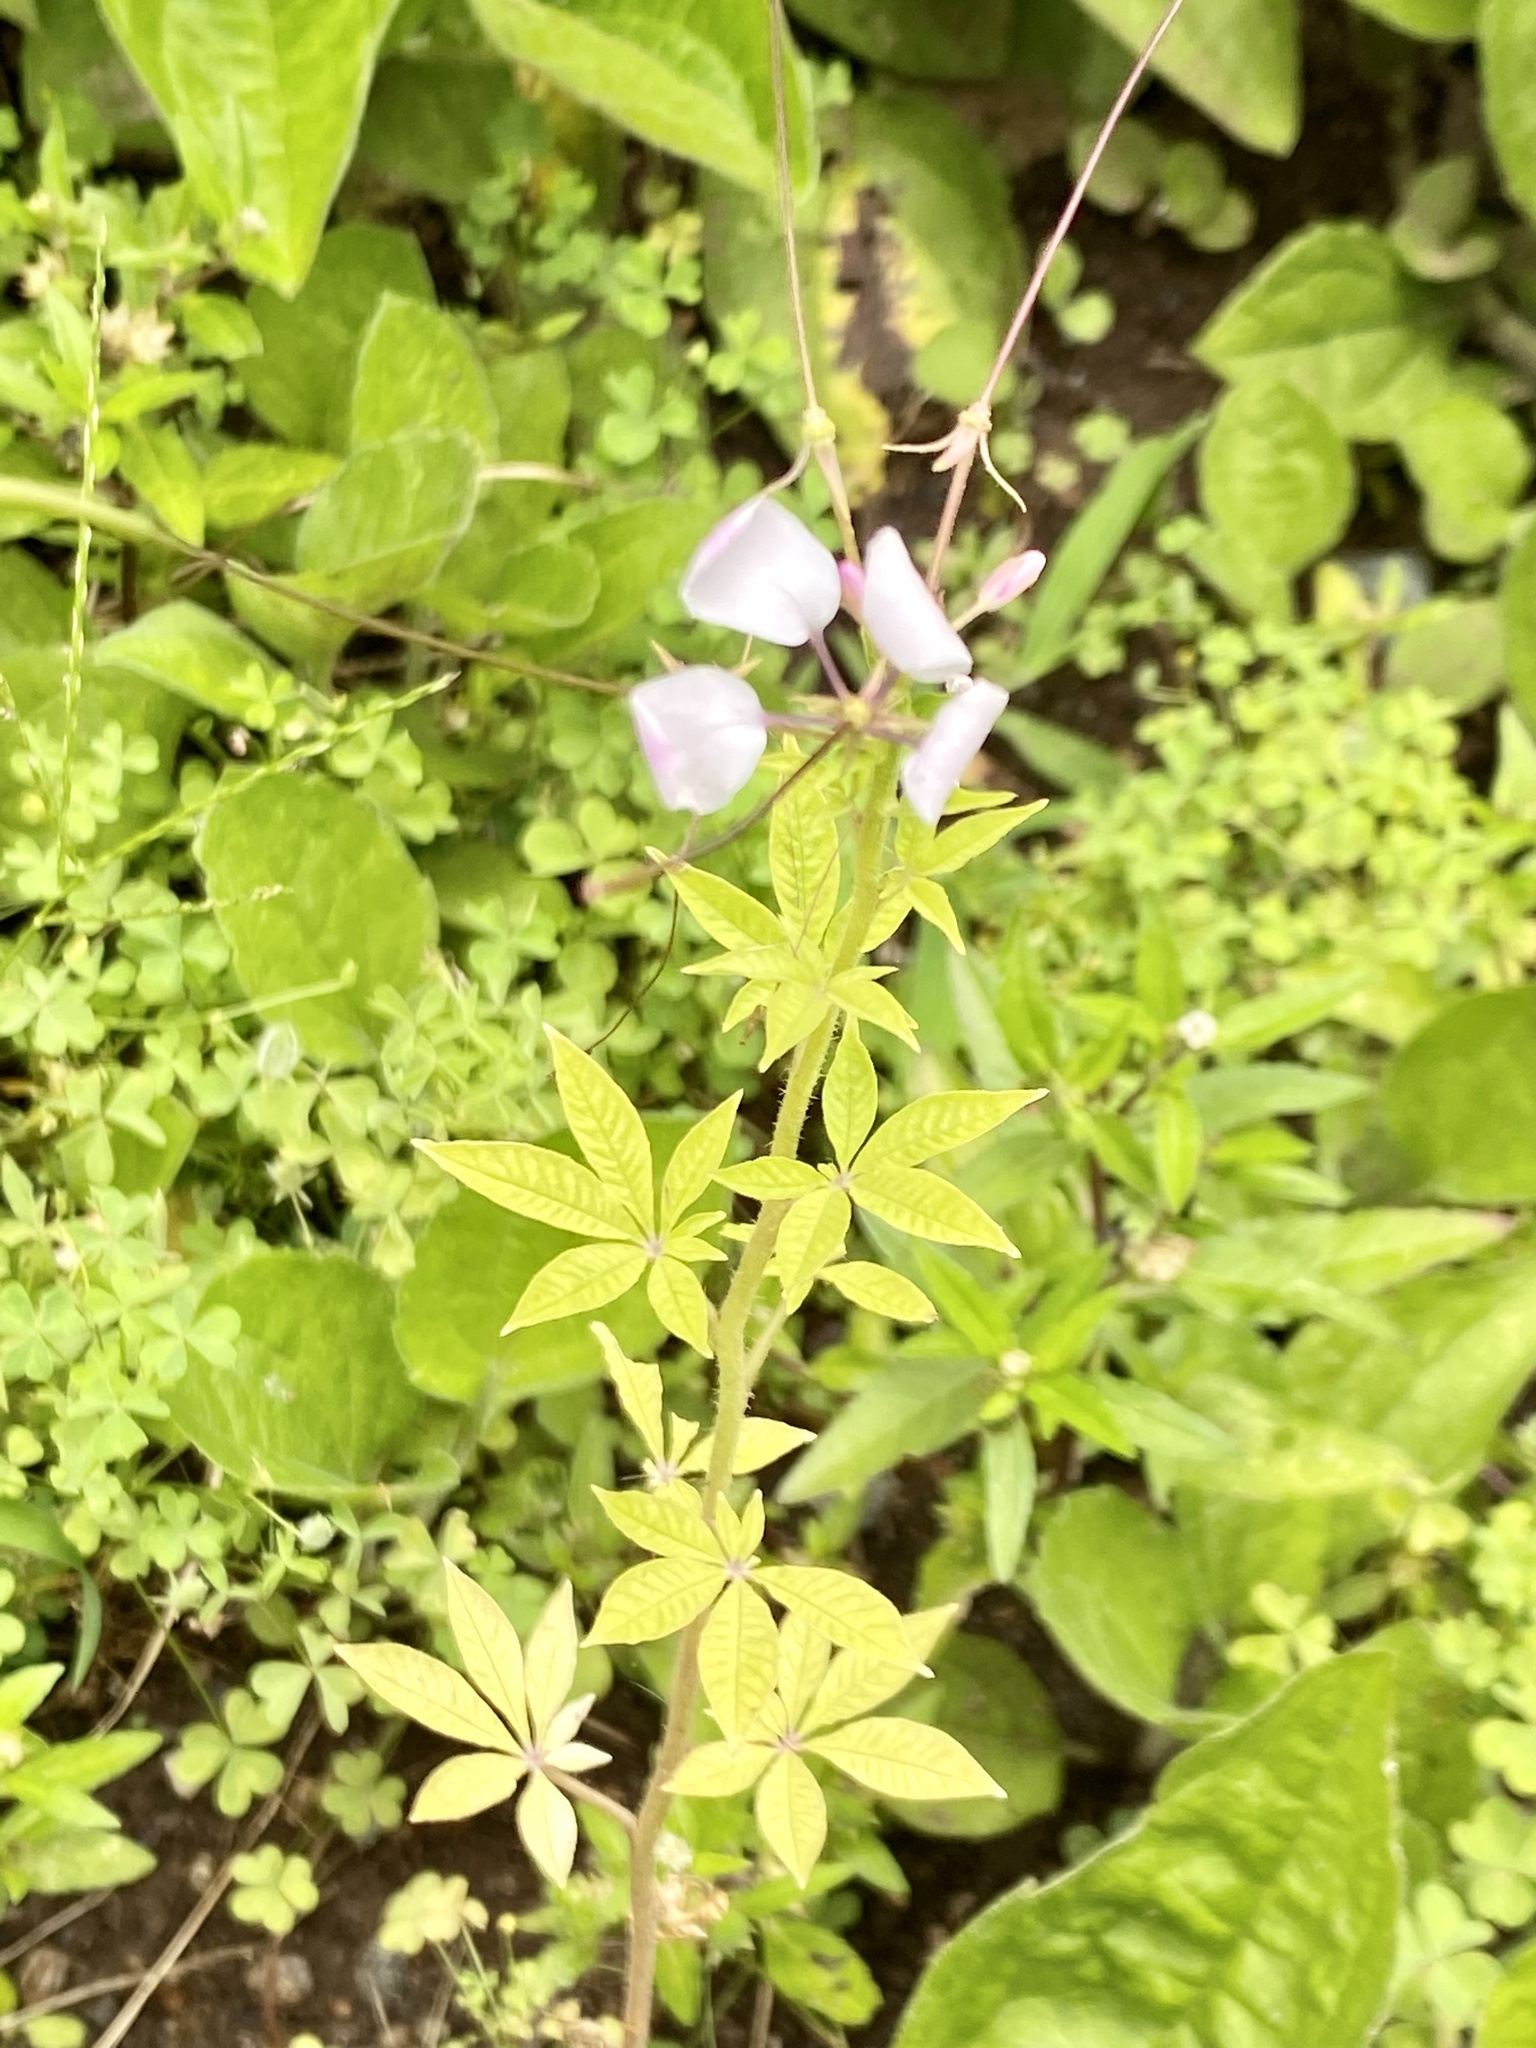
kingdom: Plantae
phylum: Tracheophyta
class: Magnoliopsida
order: Brassicales
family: Cleomaceae
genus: Tarenaya
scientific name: Tarenaya houtteana
